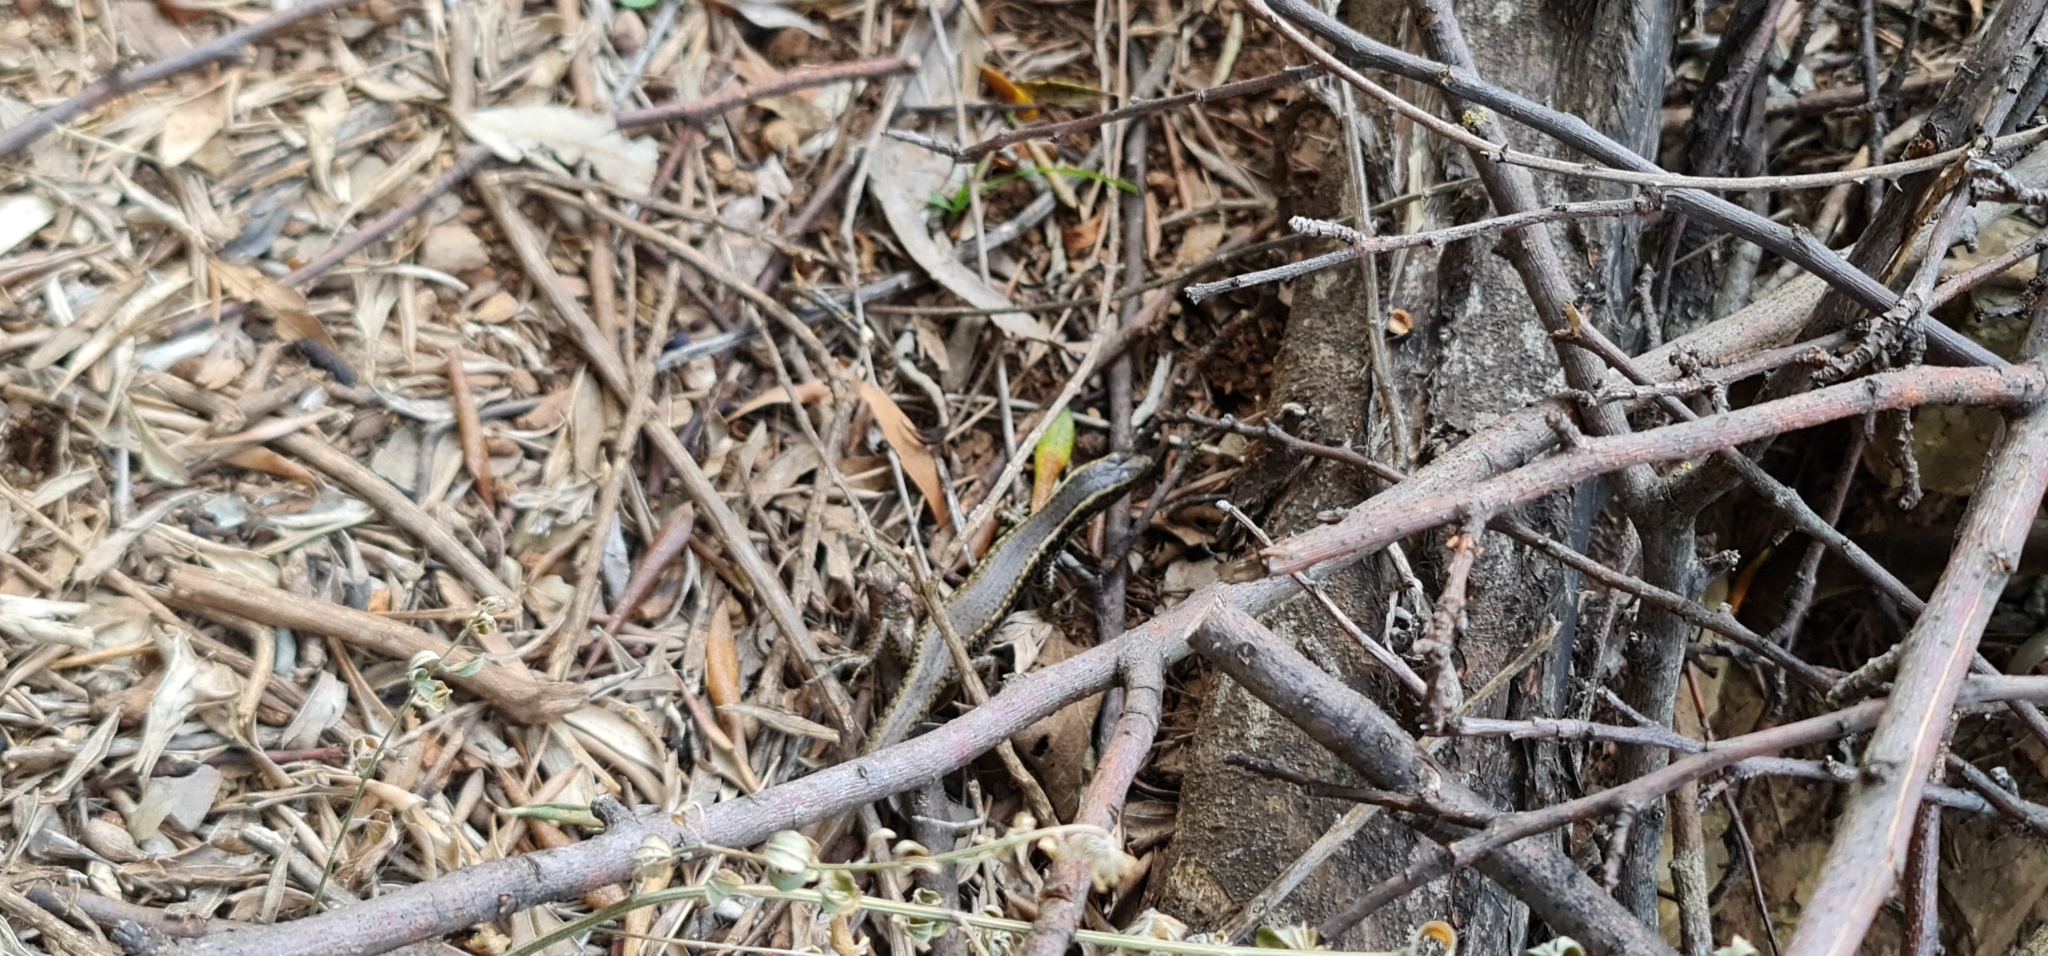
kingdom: Animalia
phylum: Chordata
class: Squamata
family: Scincidae
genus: Eulamprus
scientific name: Eulamprus quoyii
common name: Eastern water skink
